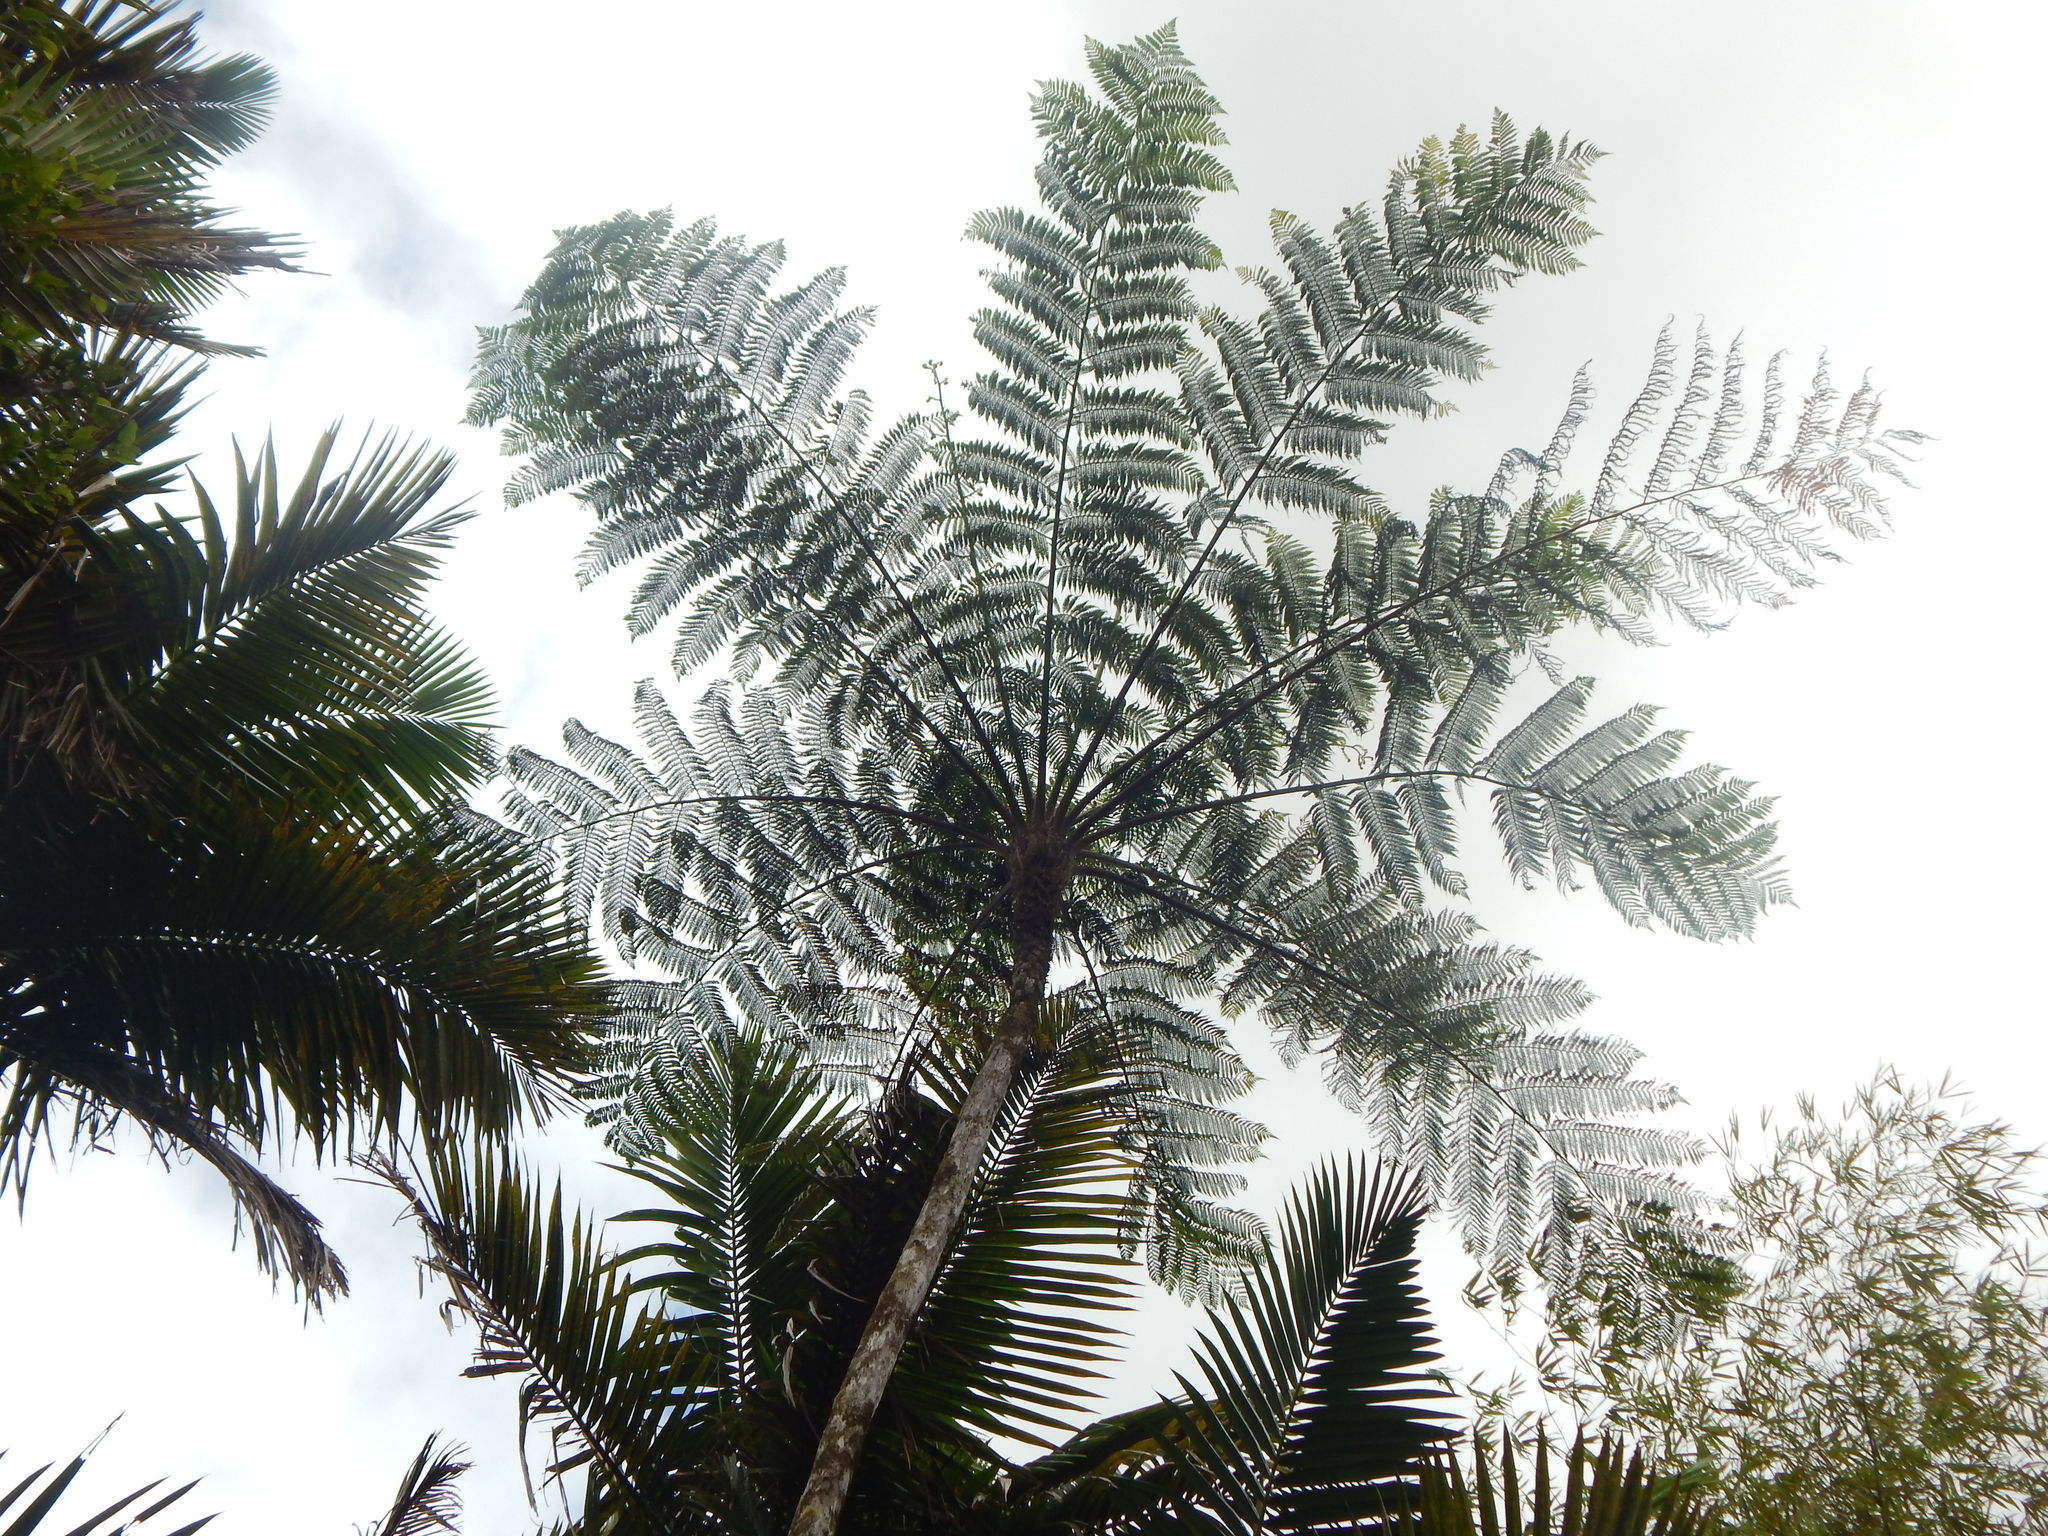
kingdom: Plantae
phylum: Tracheophyta
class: Polypodiopsida
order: Cyatheales
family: Cyatheaceae
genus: Cyathea
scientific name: Cyathea arborea
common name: West indian treefern
